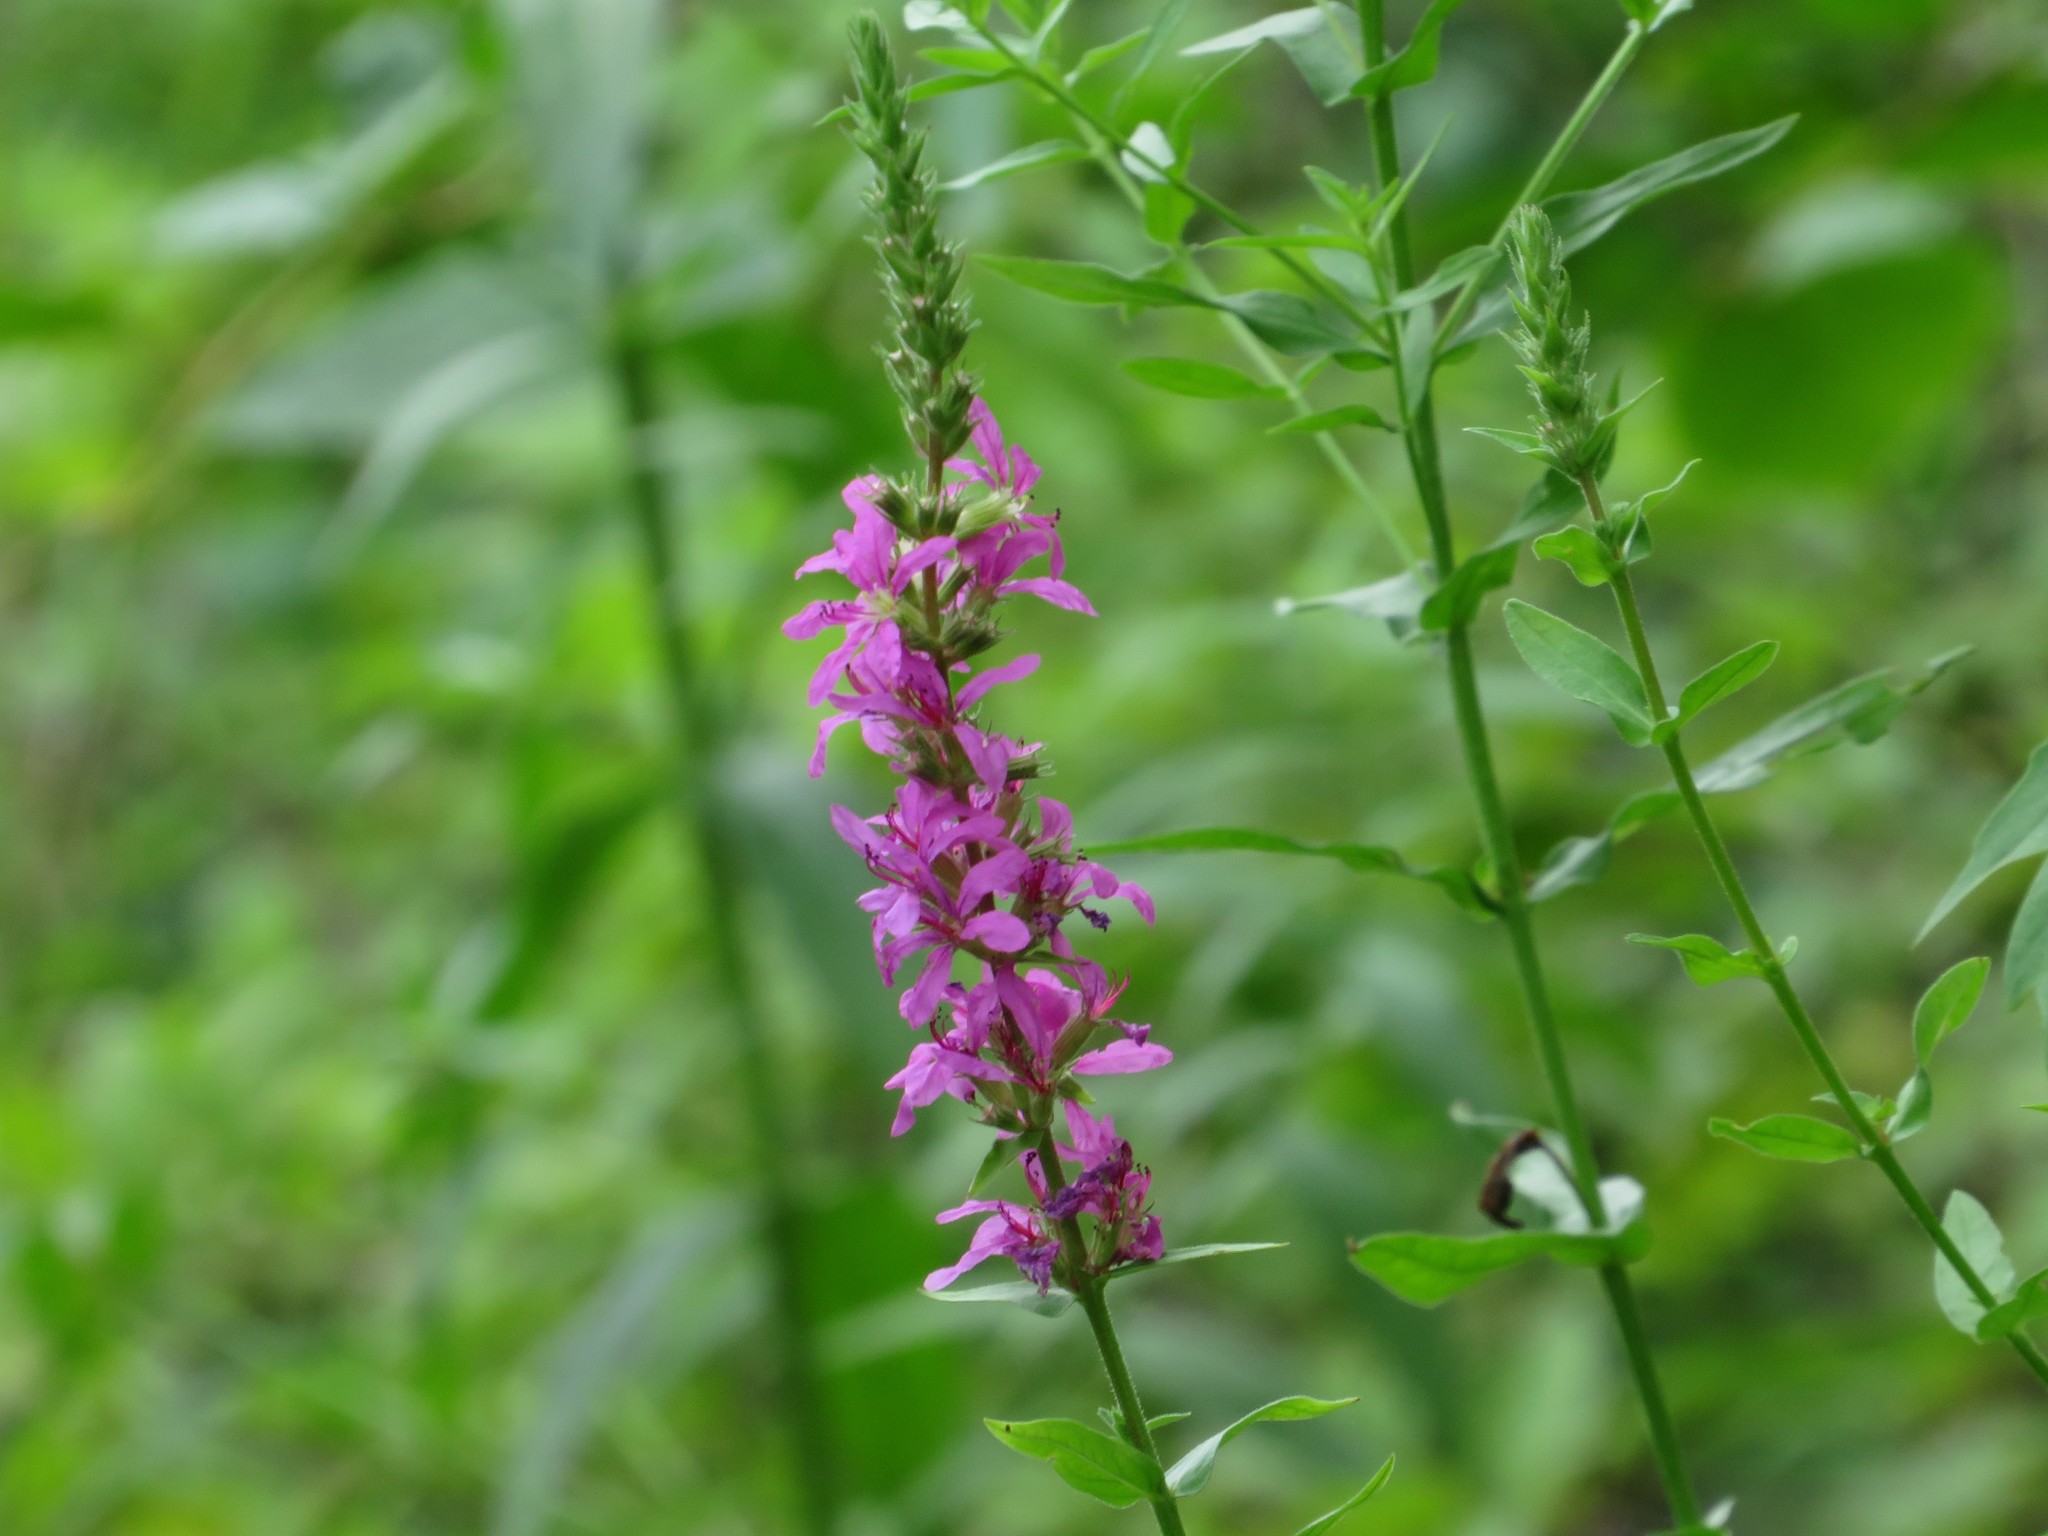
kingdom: Plantae
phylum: Tracheophyta
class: Magnoliopsida
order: Myrtales
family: Lythraceae
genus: Lythrum
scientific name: Lythrum salicaria
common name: Purple loosestrife
